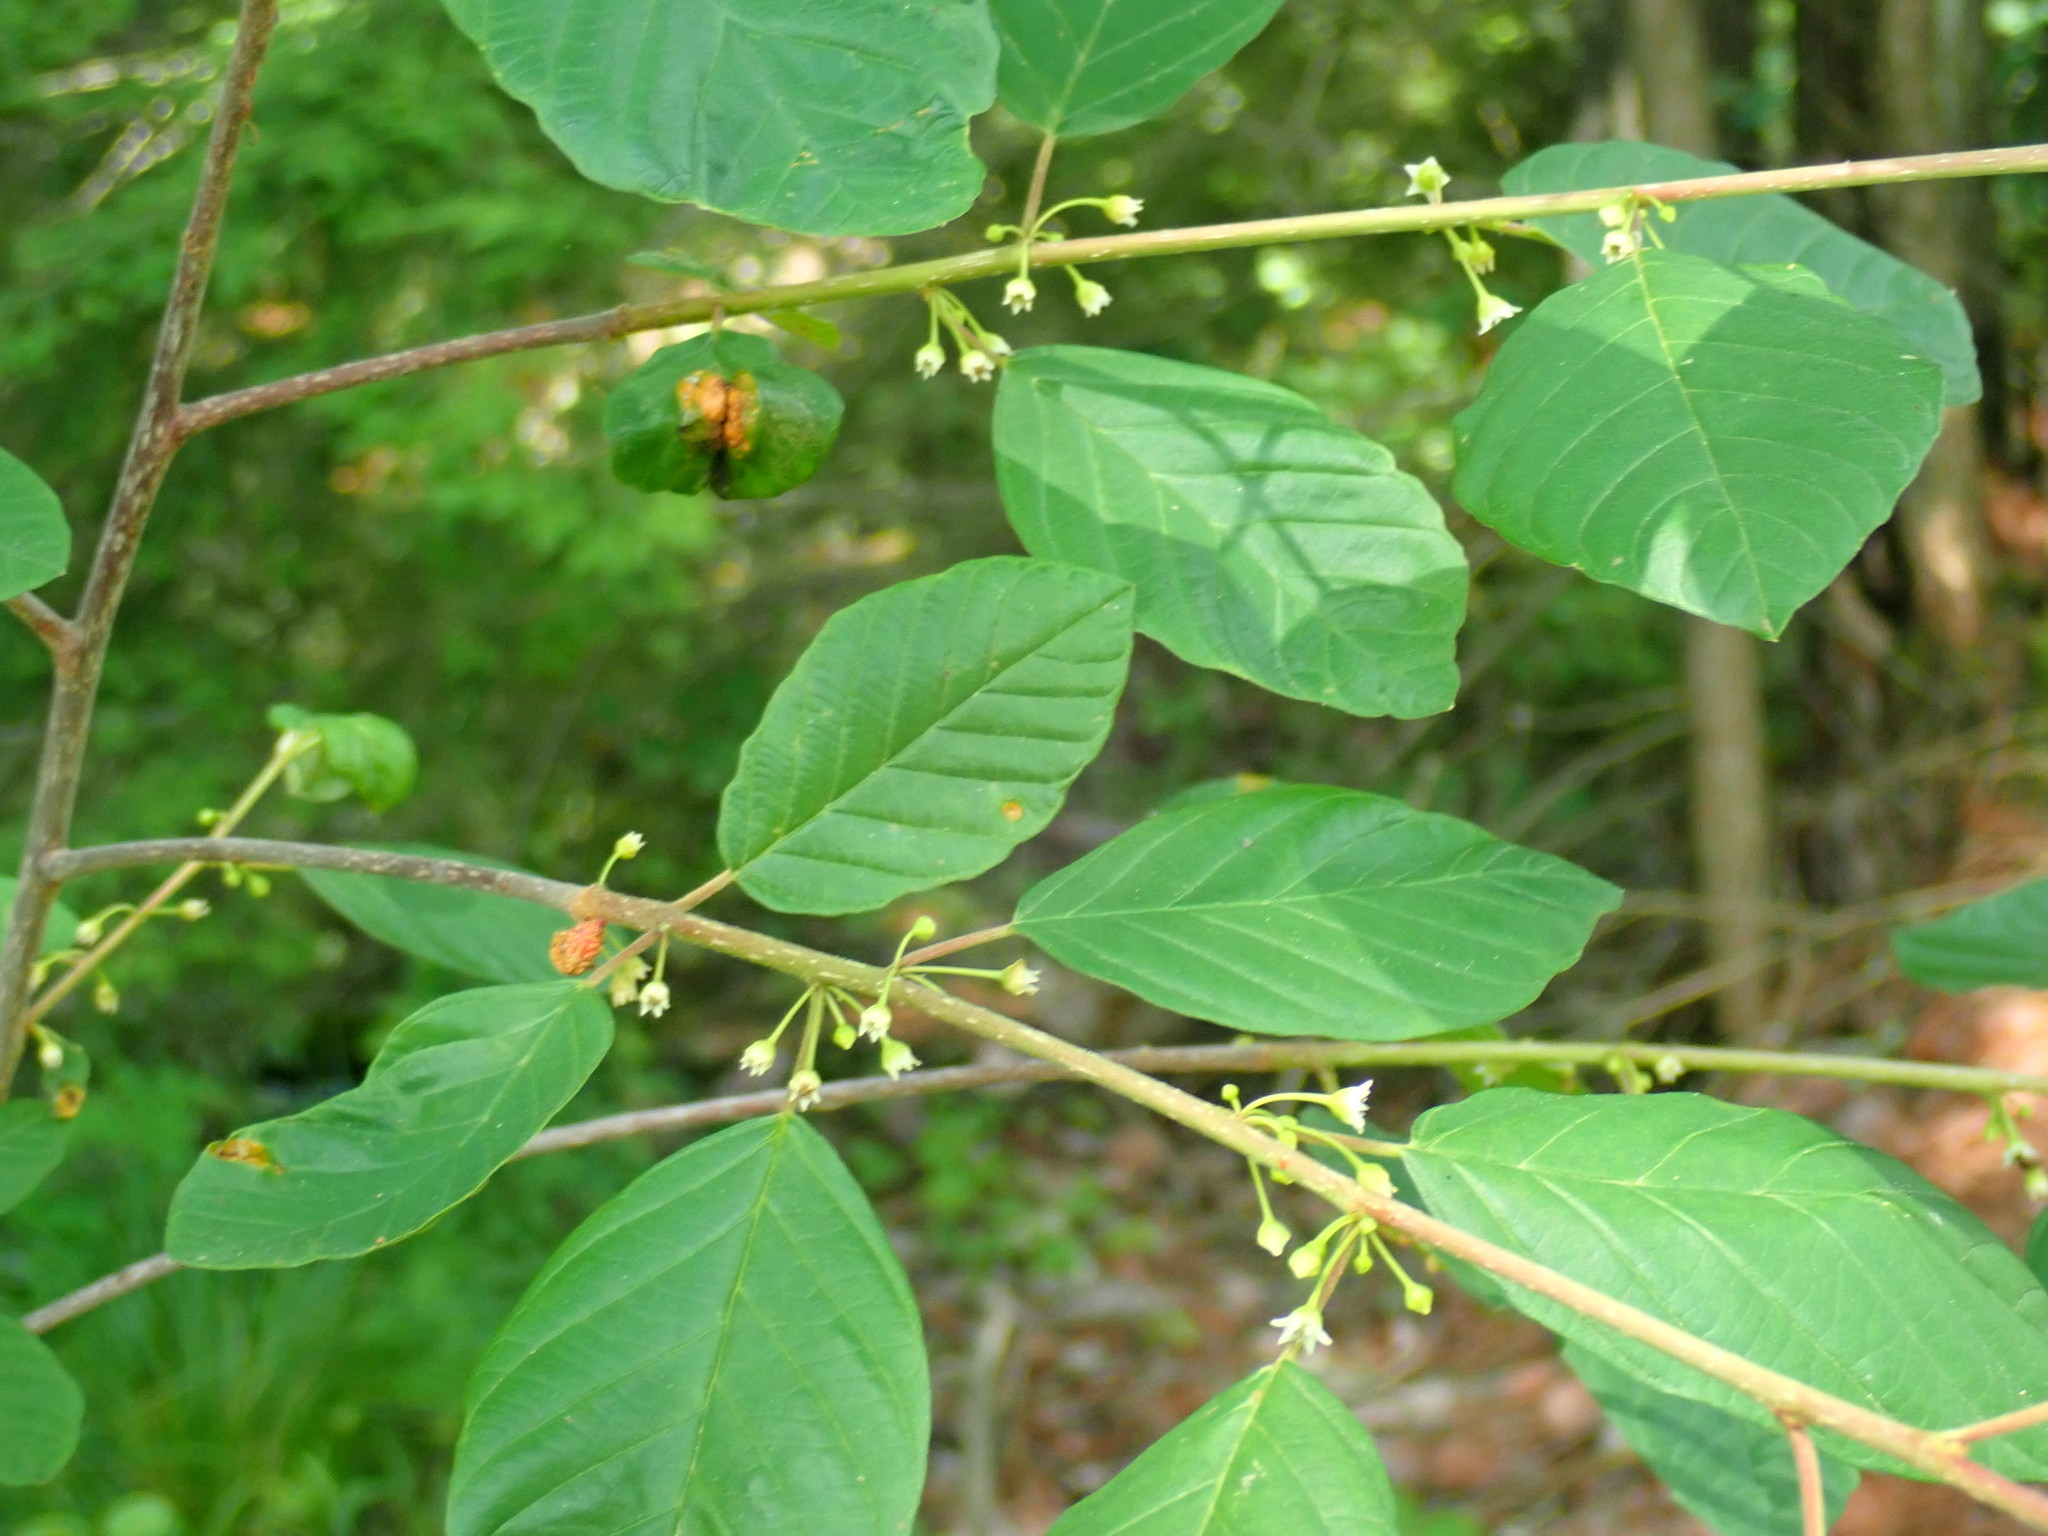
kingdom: Plantae
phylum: Tracheophyta
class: Magnoliopsida
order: Rosales
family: Rhamnaceae
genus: Frangula
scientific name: Frangula alnus
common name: Alder buckthorn
